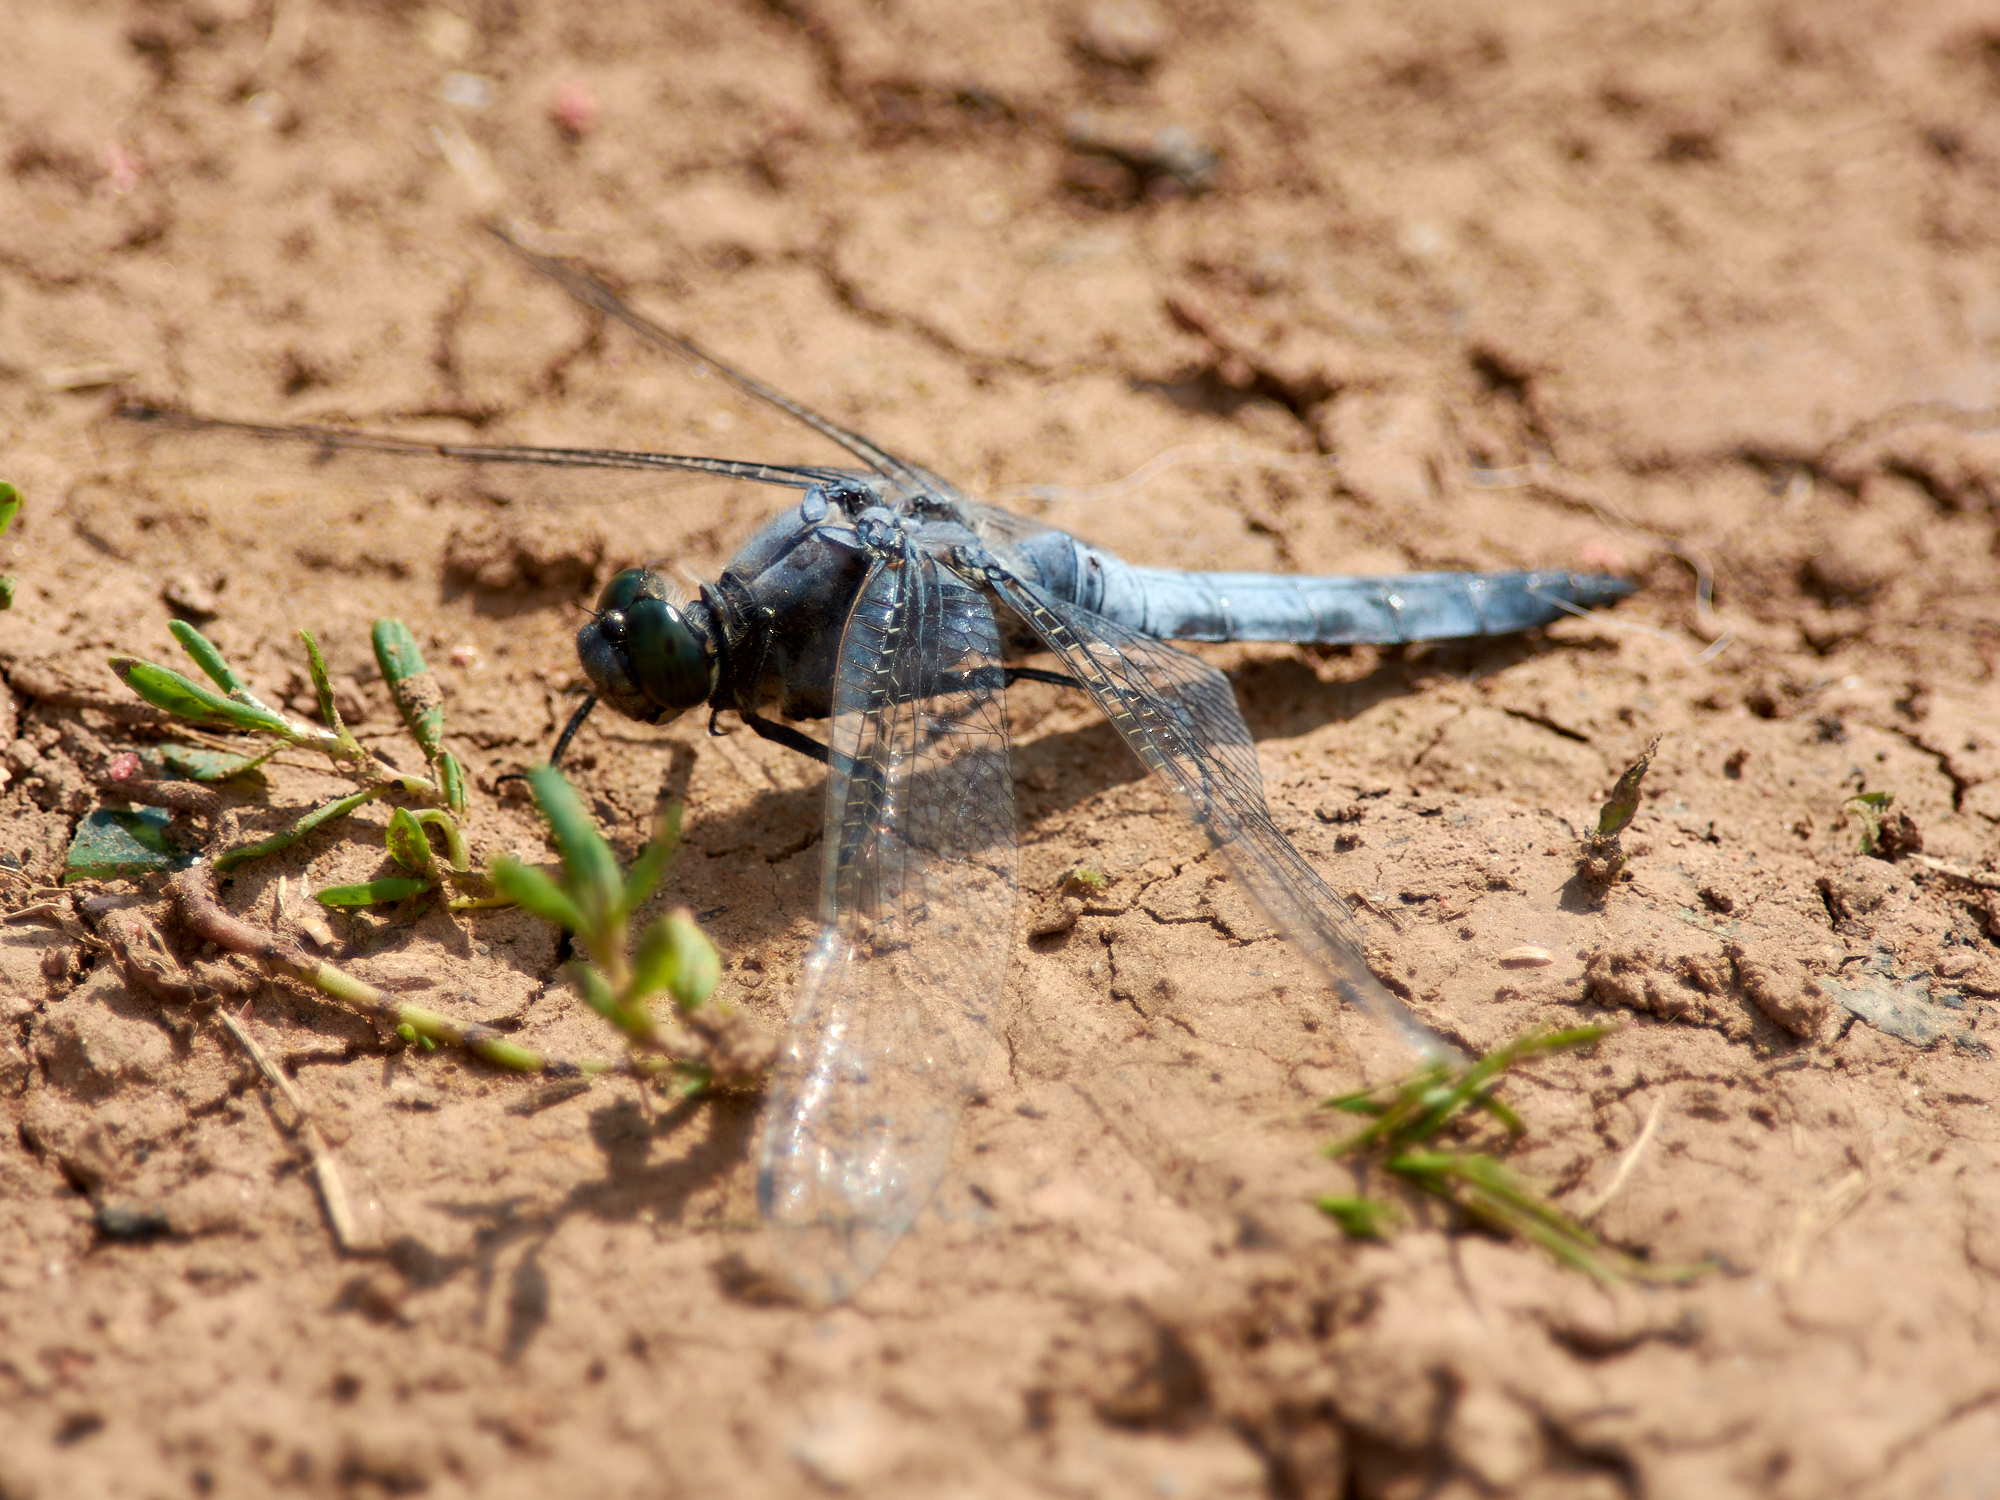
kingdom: Animalia
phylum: Arthropoda
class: Insecta
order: Odonata
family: Libellulidae
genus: Orthetrum
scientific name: Orthetrum cancellatum
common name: Black-tailed skimmer
